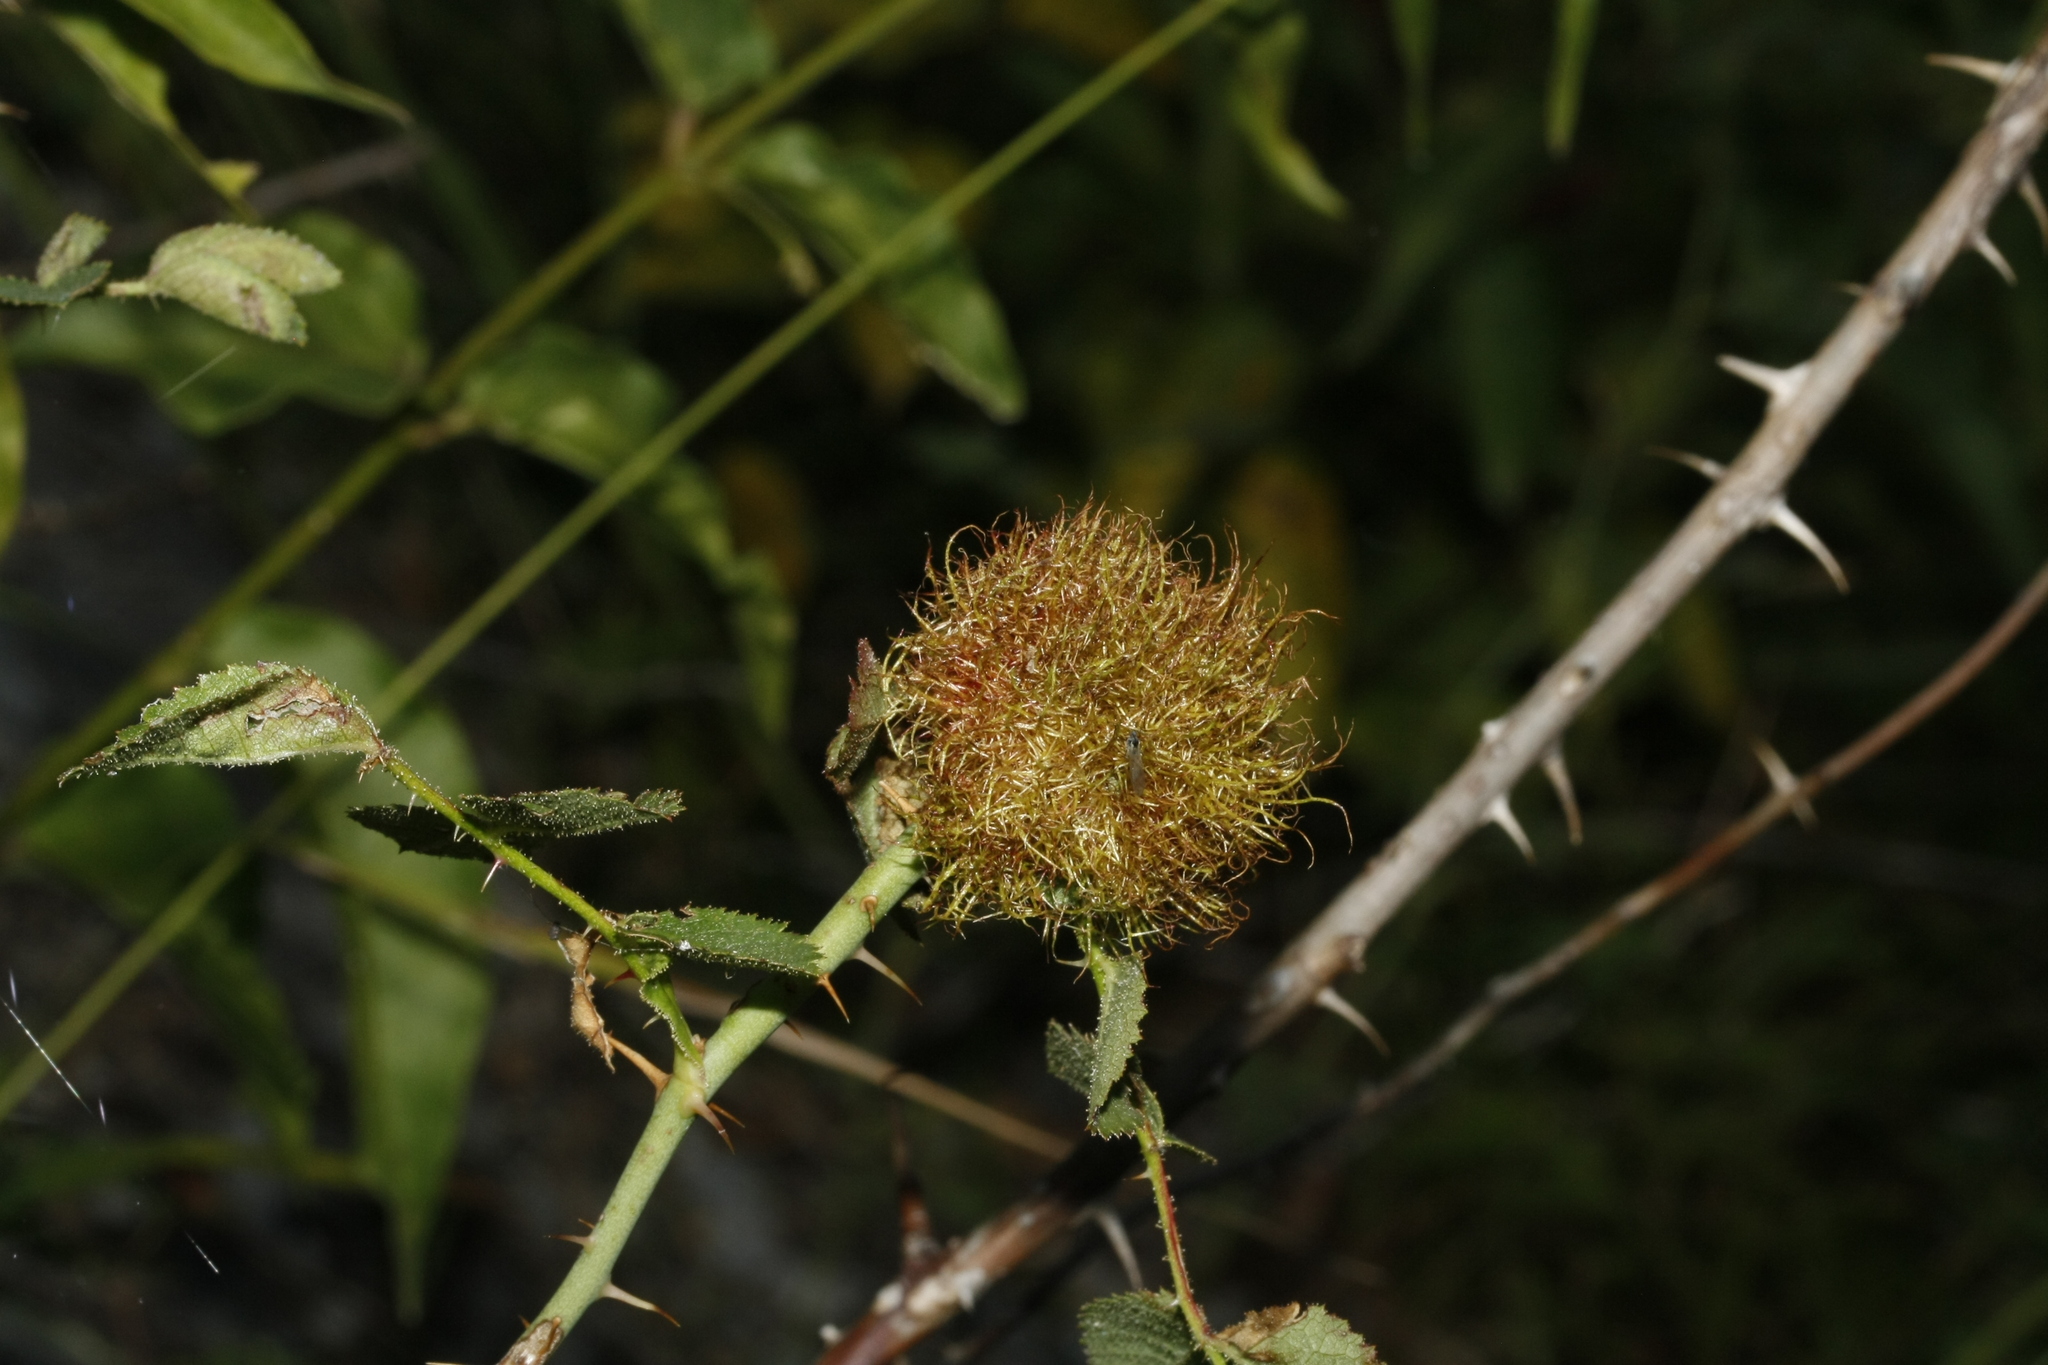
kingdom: Animalia
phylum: Arthropoda
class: Insecta
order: Hymenoptera
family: Cynipidae
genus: Diplolepis
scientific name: Diplolepis rosae
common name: Bedeguar gall
